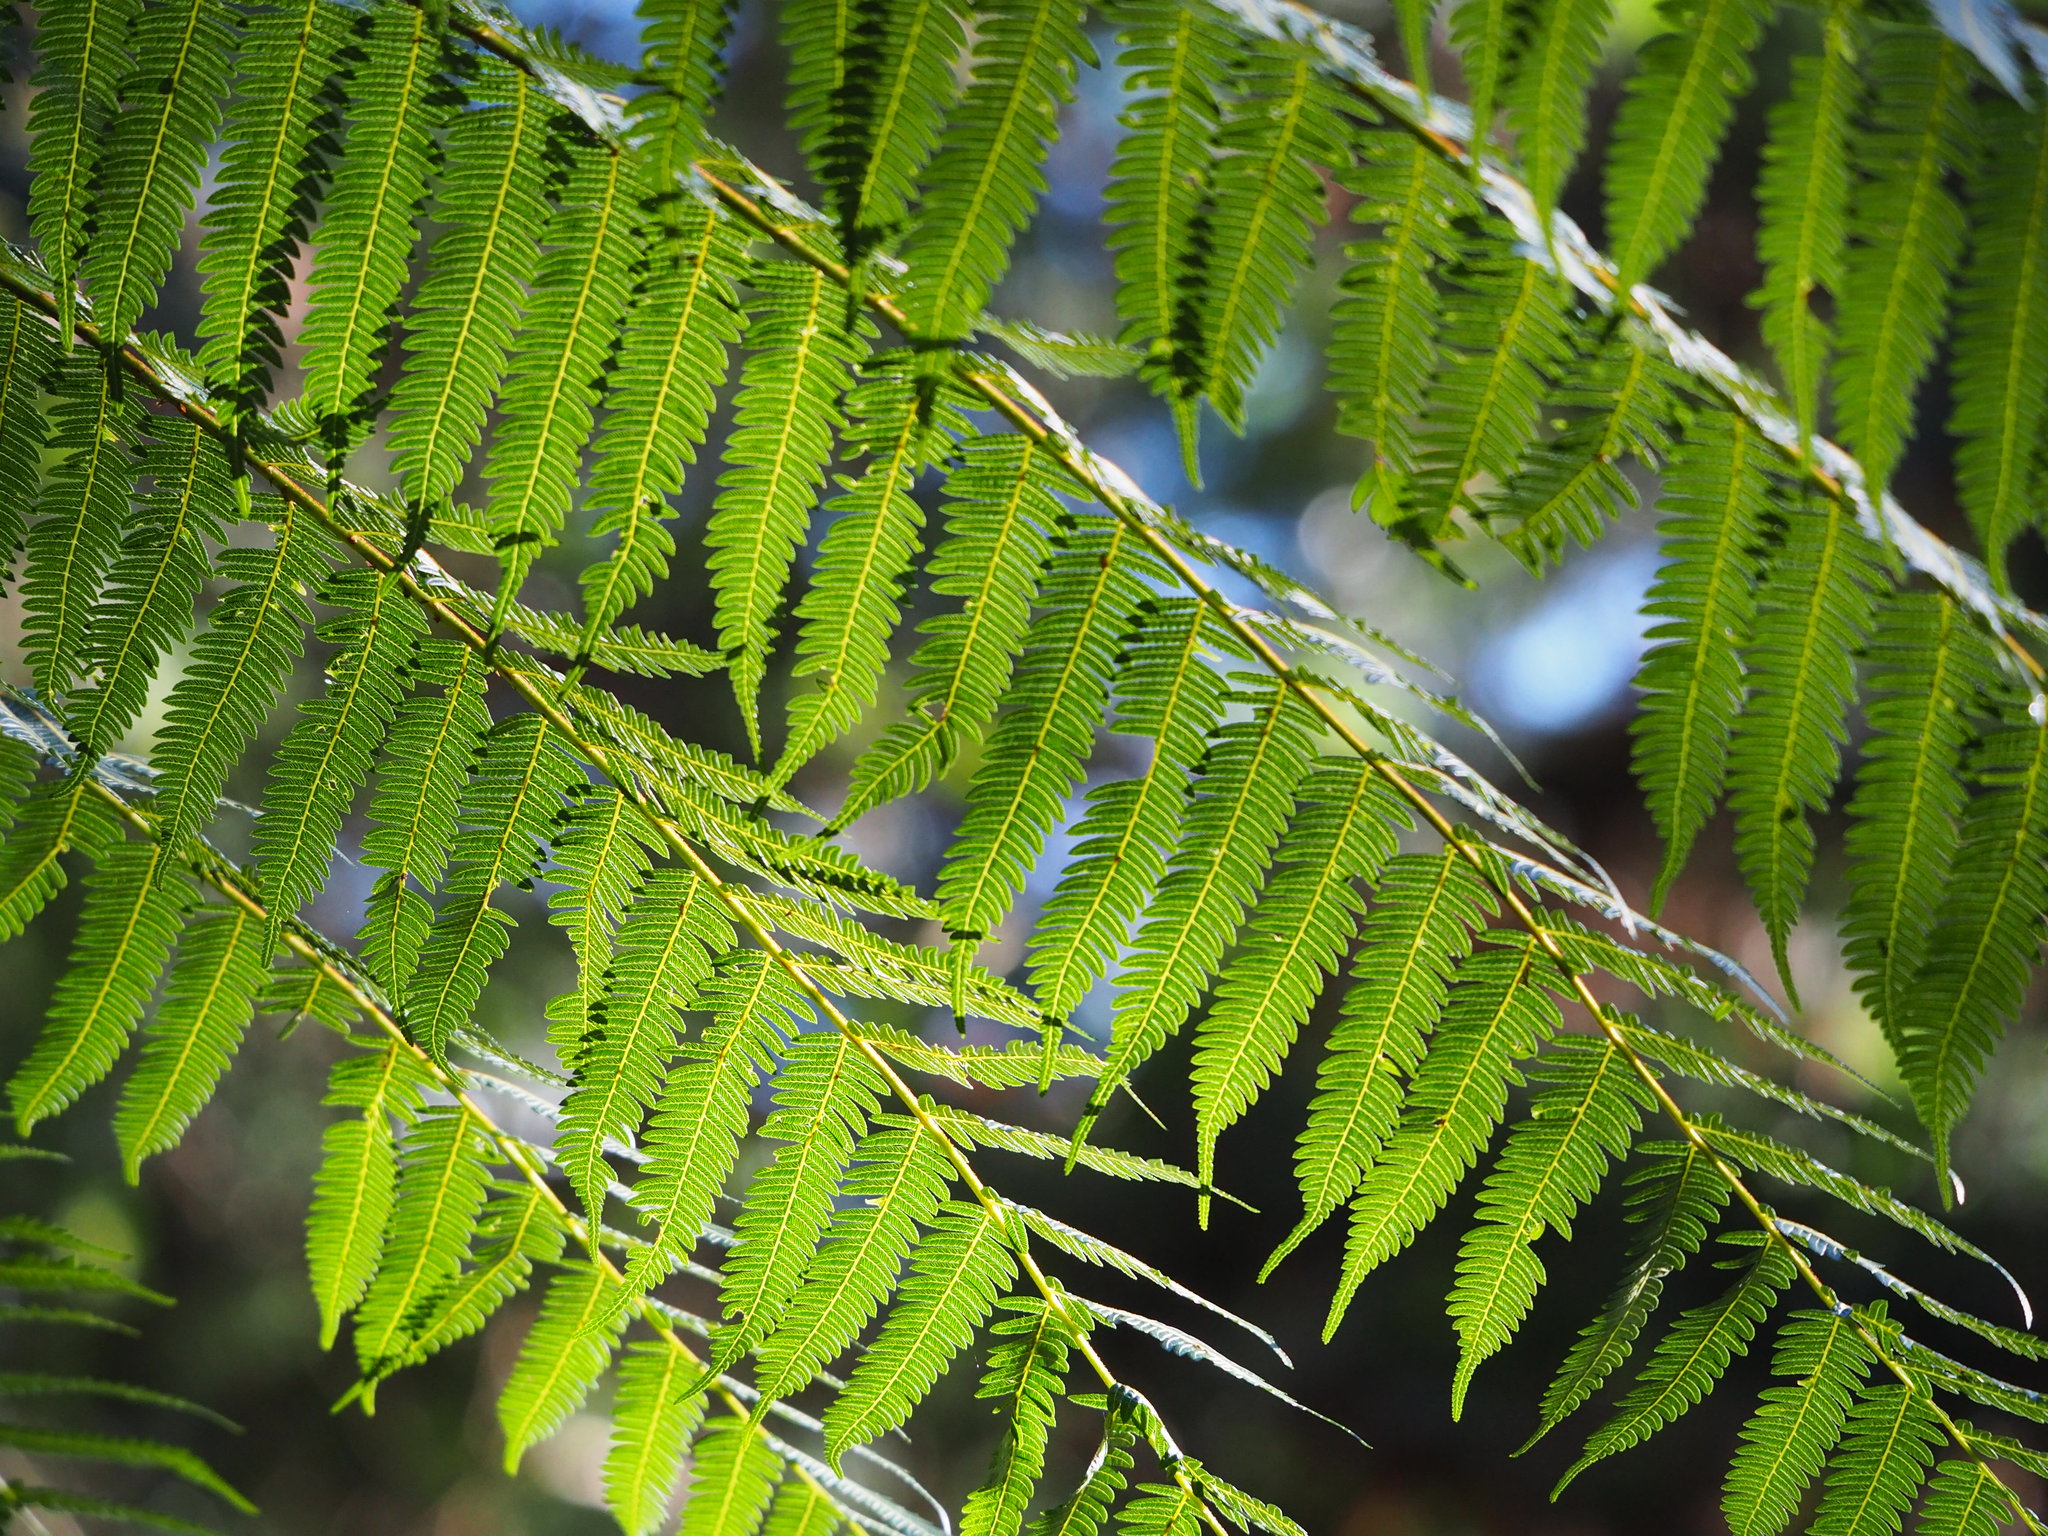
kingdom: Plantae
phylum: Tracheophyta
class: Polypodiopsida
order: Cyatheales
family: Cyatheaceae
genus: Alsophila
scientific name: Alsophila spinulosa
